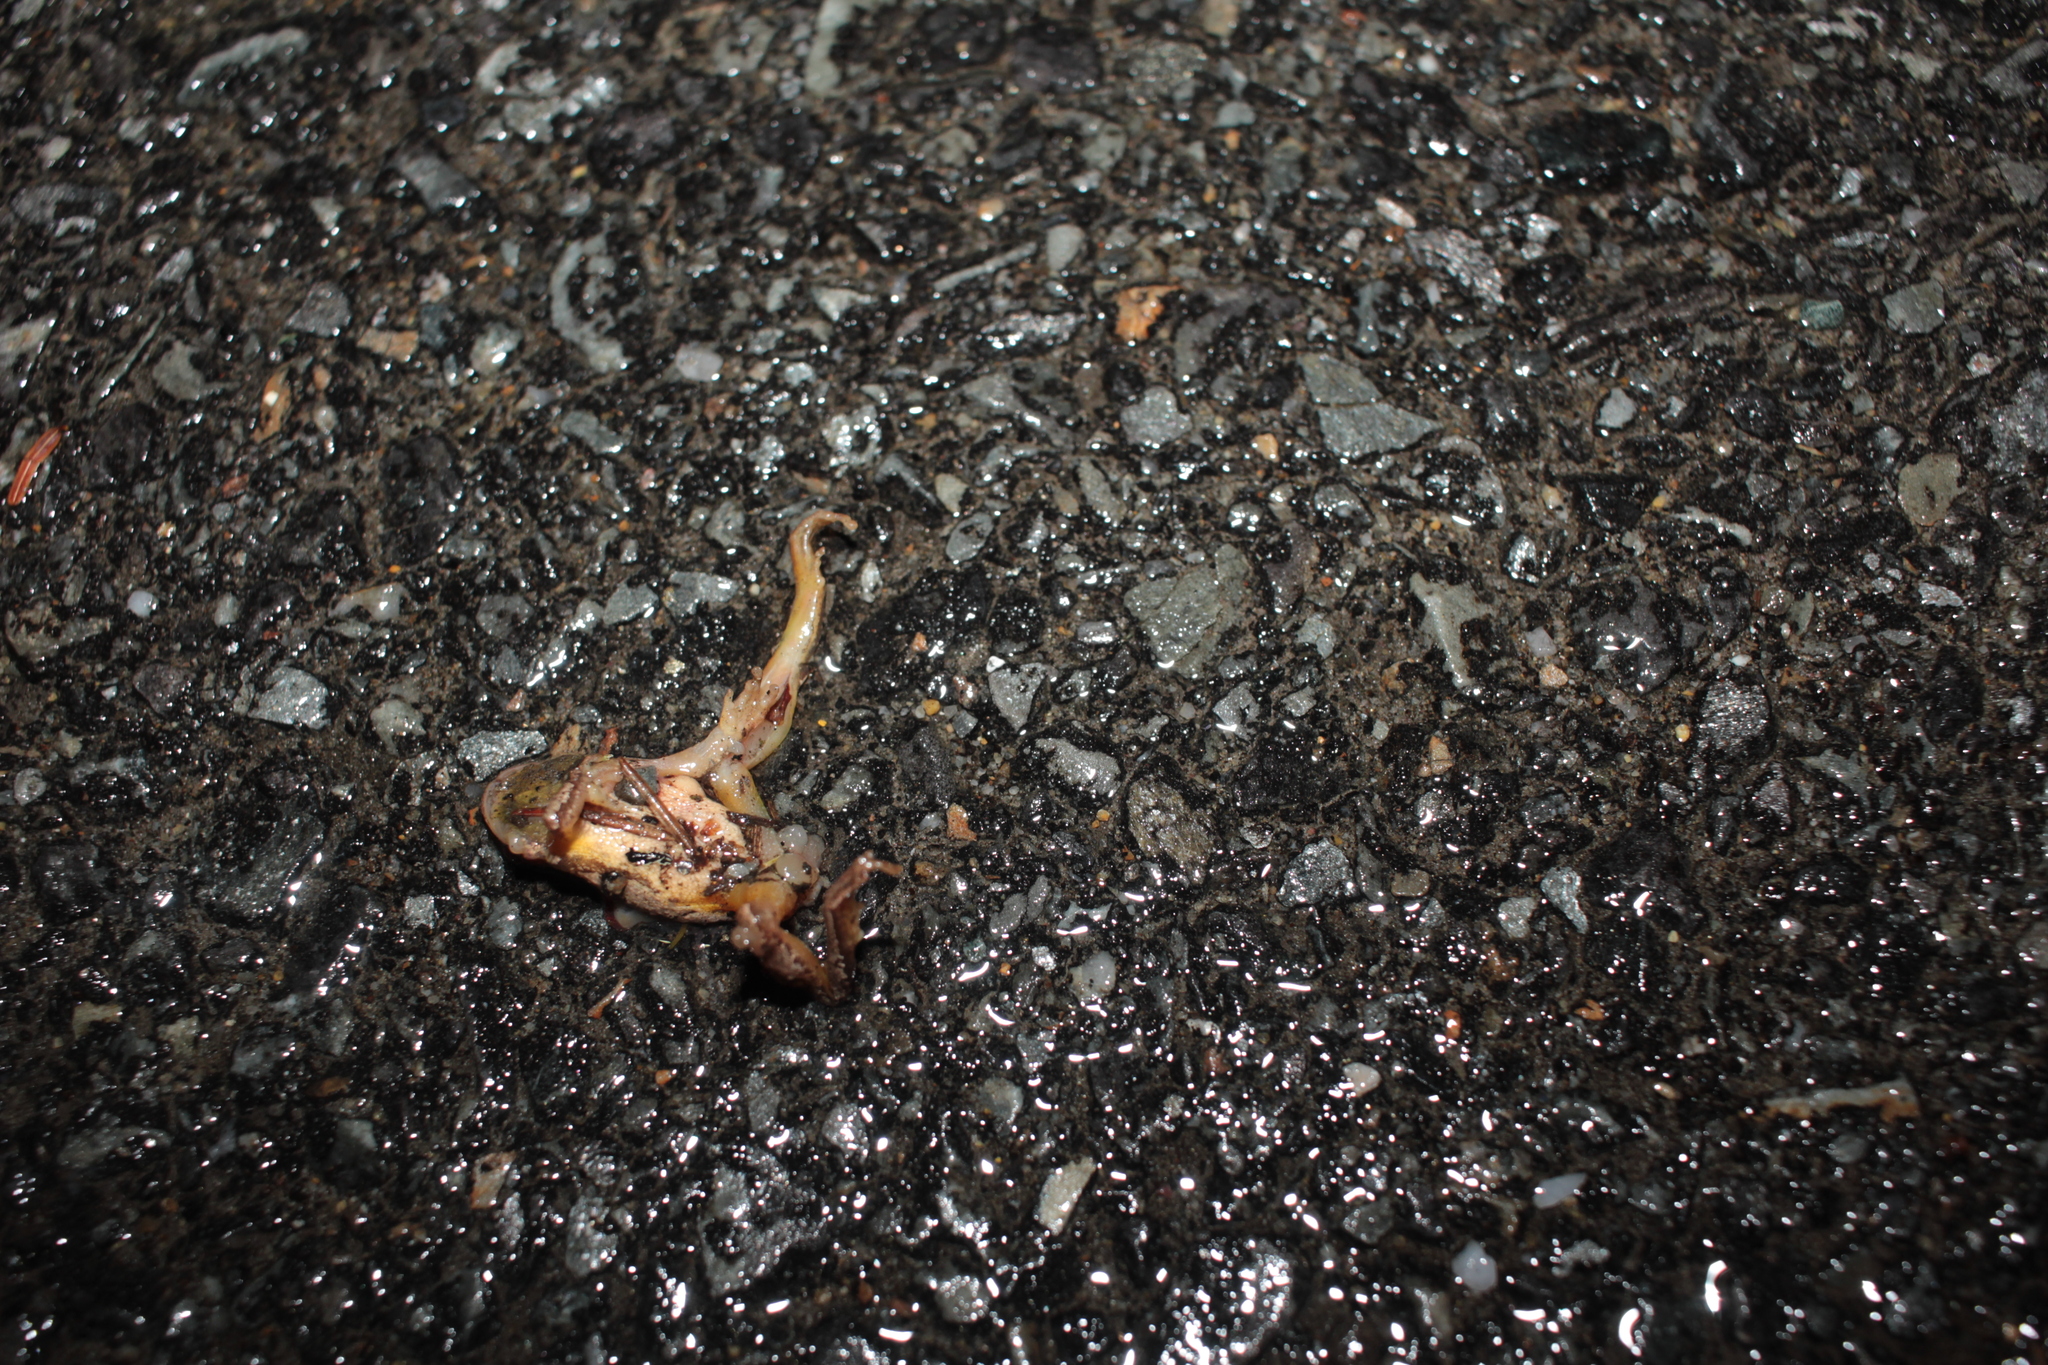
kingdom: Animalia
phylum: Chordata
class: Amphibia
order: Anura
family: Hylidae
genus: Pseudacris
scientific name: Pseudacris crucifer
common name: Spring peeper
